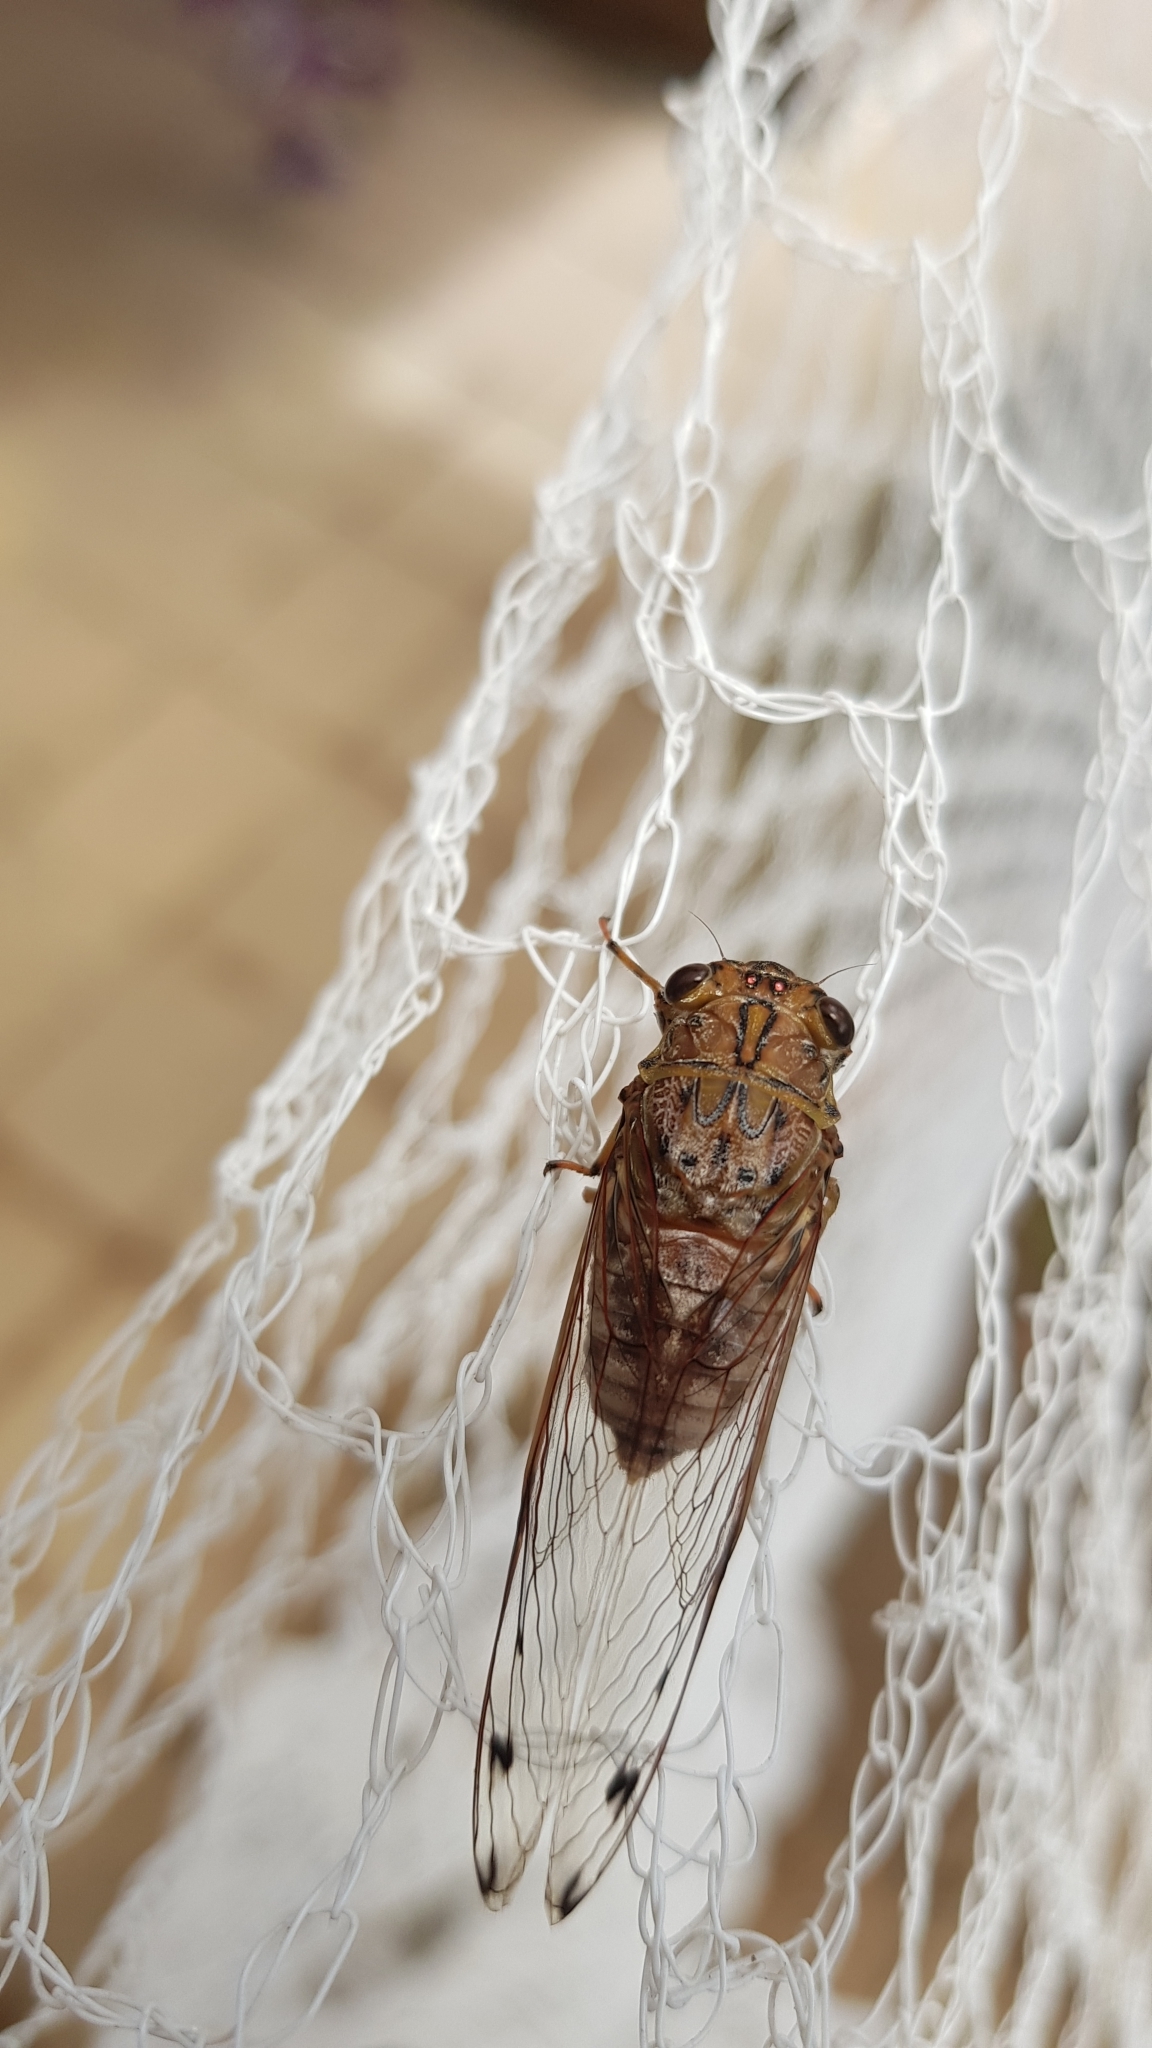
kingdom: Animalia
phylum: Arthropoda
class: Insecta
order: Hemiptera
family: Cicadidae
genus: Tamasa
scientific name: Tamasa tristigma
